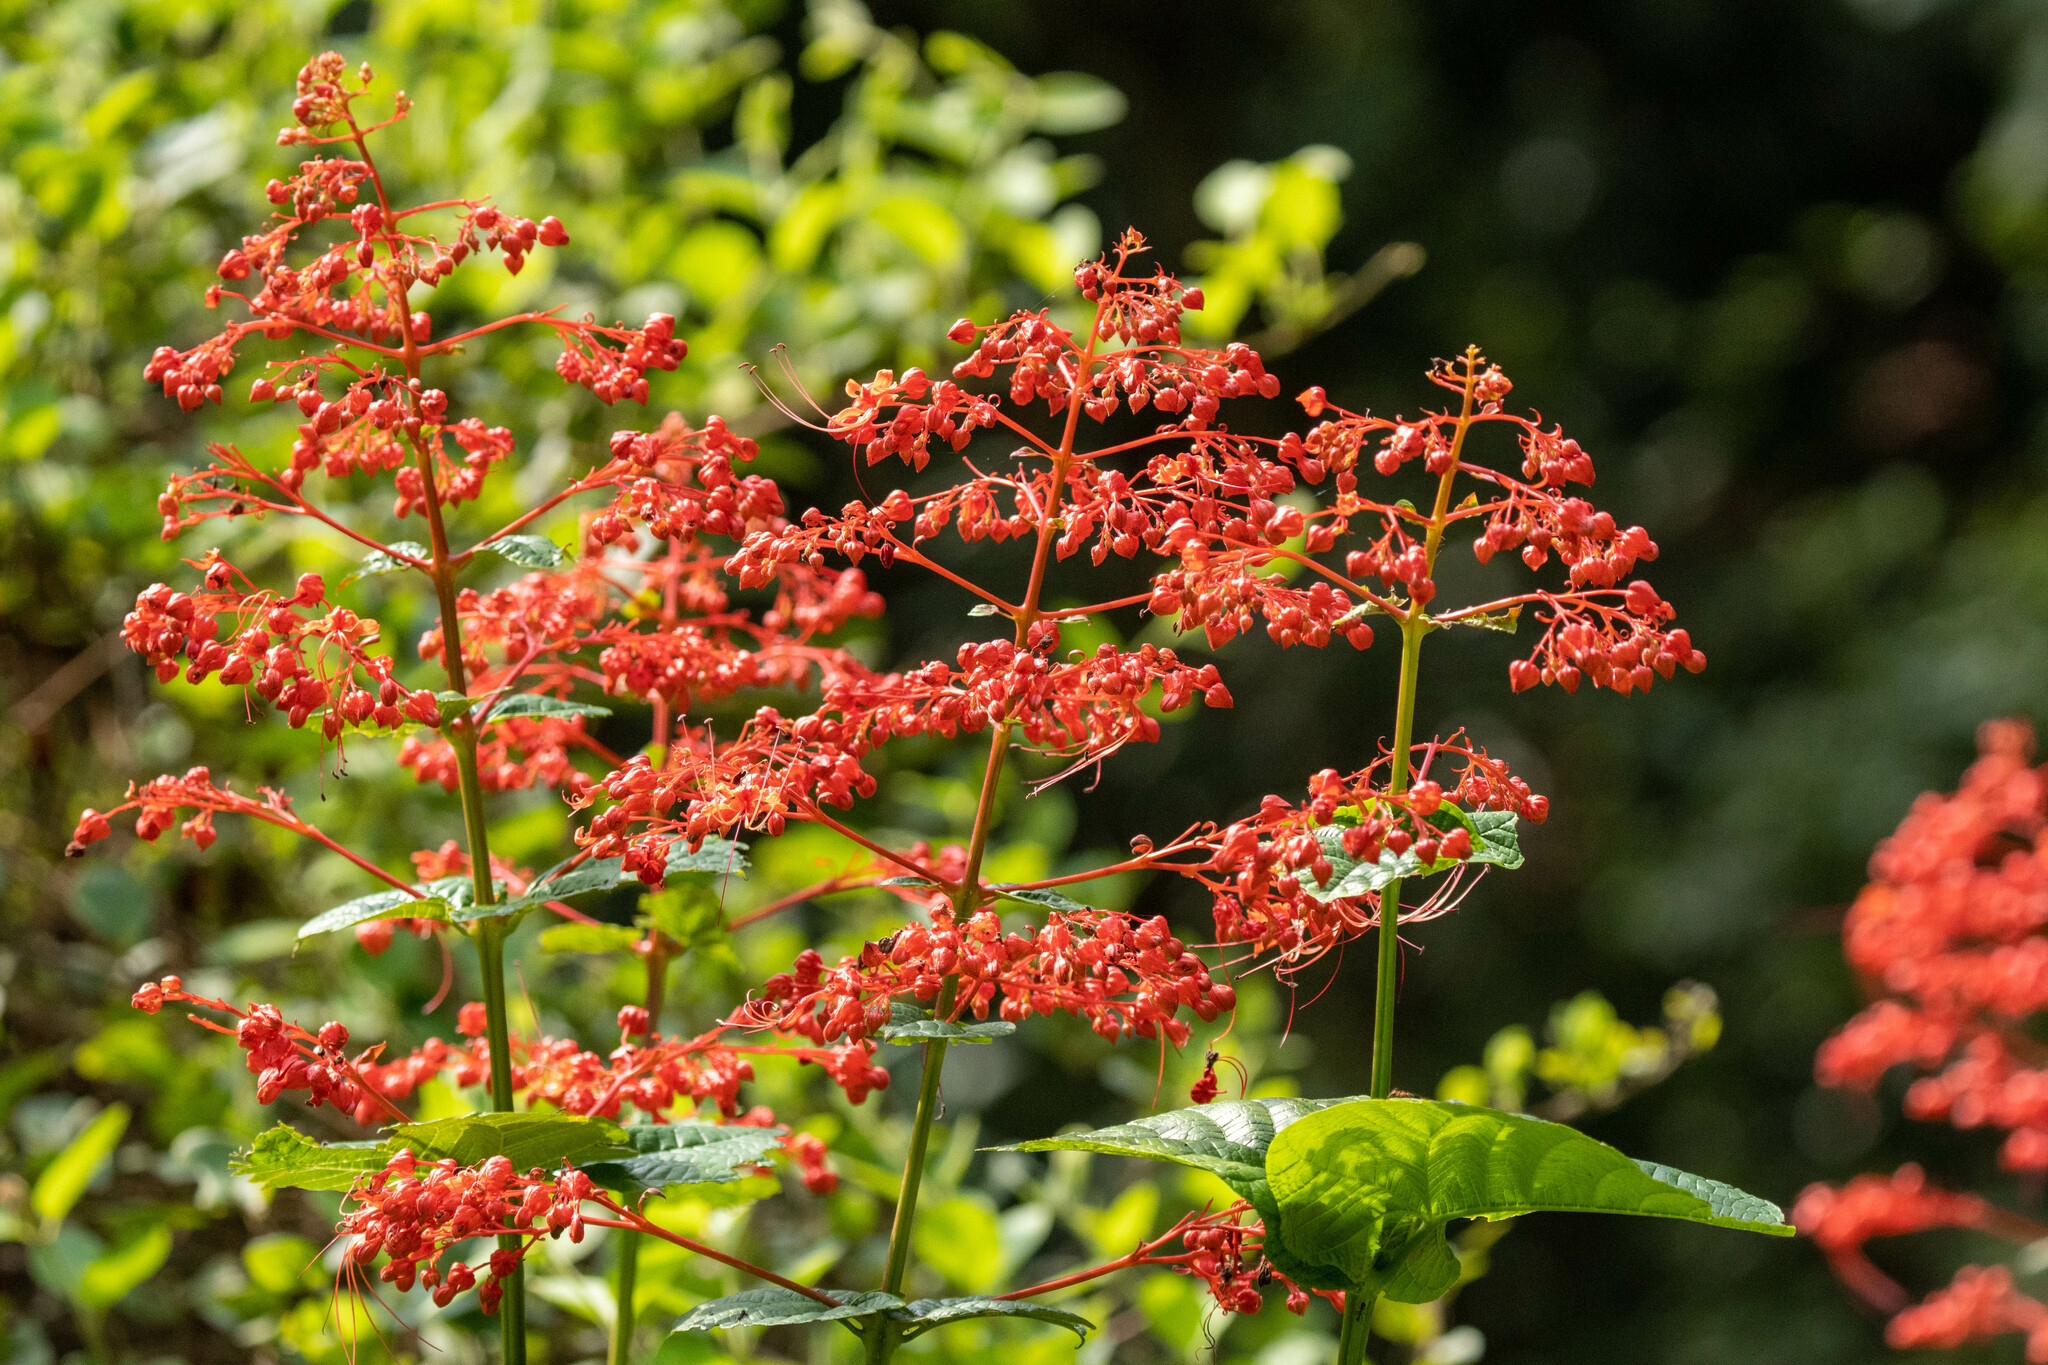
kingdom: Plantae
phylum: Tracheophyta
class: Magnoliopsida
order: Lamiales
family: Lamiaceae
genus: Clerodendrum
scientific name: Clerodendrum japonicum
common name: Japanese glorybower
